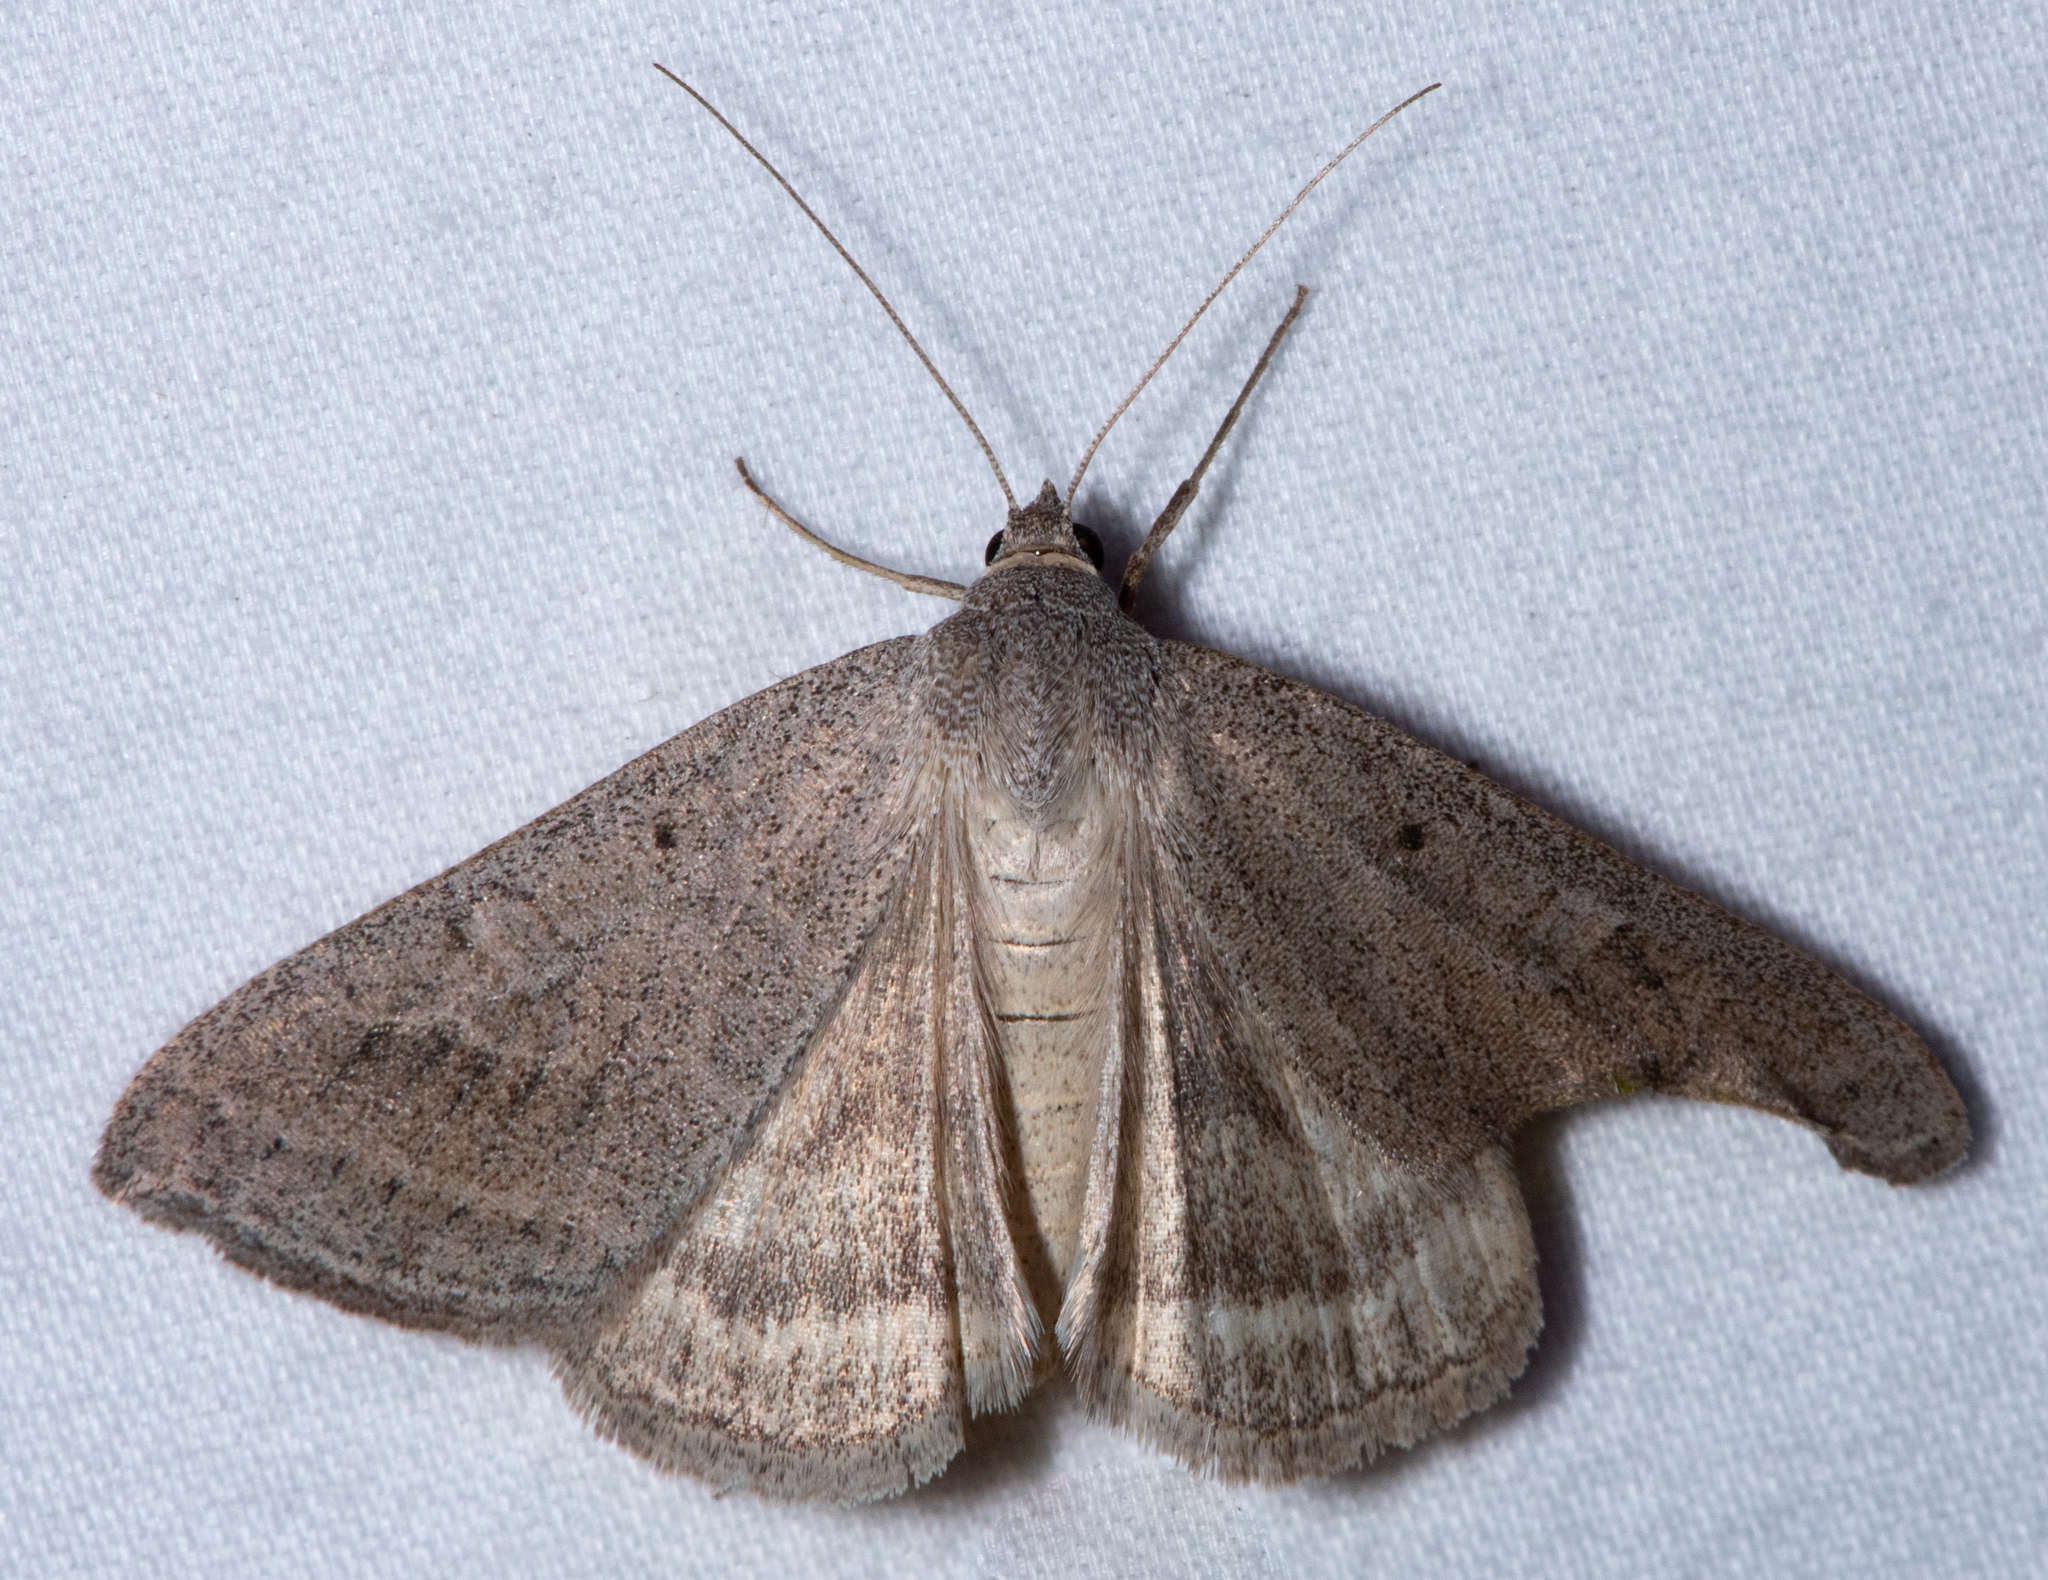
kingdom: Animalia
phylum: Arthropoda
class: Insecta
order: Lepidoptera
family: Erebidae
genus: Caenurgia
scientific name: Caenurgia togataria
